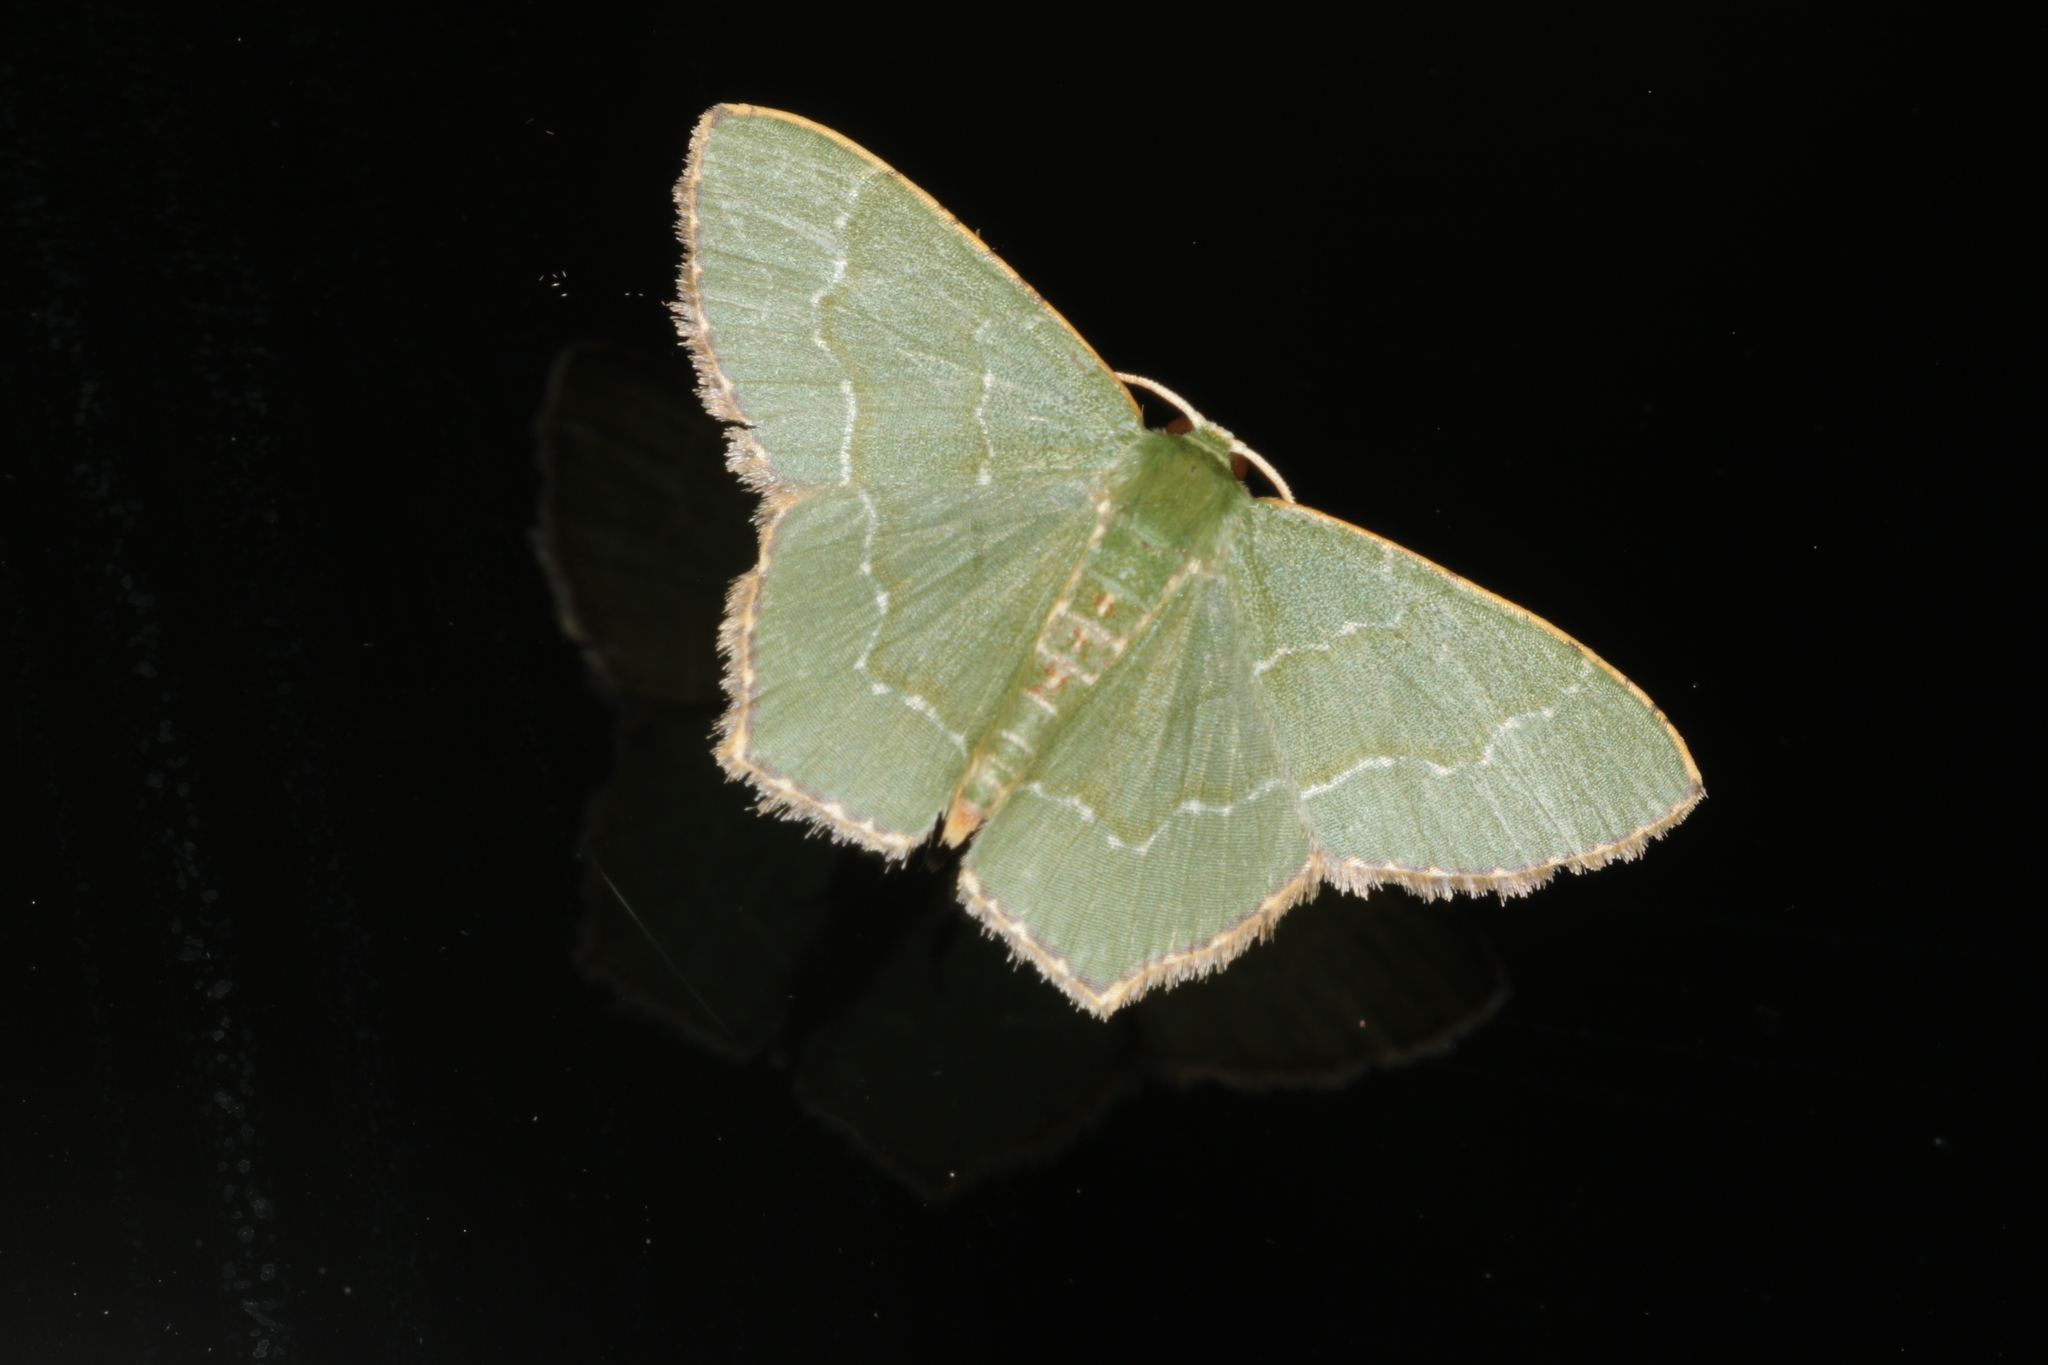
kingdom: Animalia
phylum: Arthropoda
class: Insecta
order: Lepidoptera
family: Geometridae
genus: Hemithea
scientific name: Hemithea wuka
